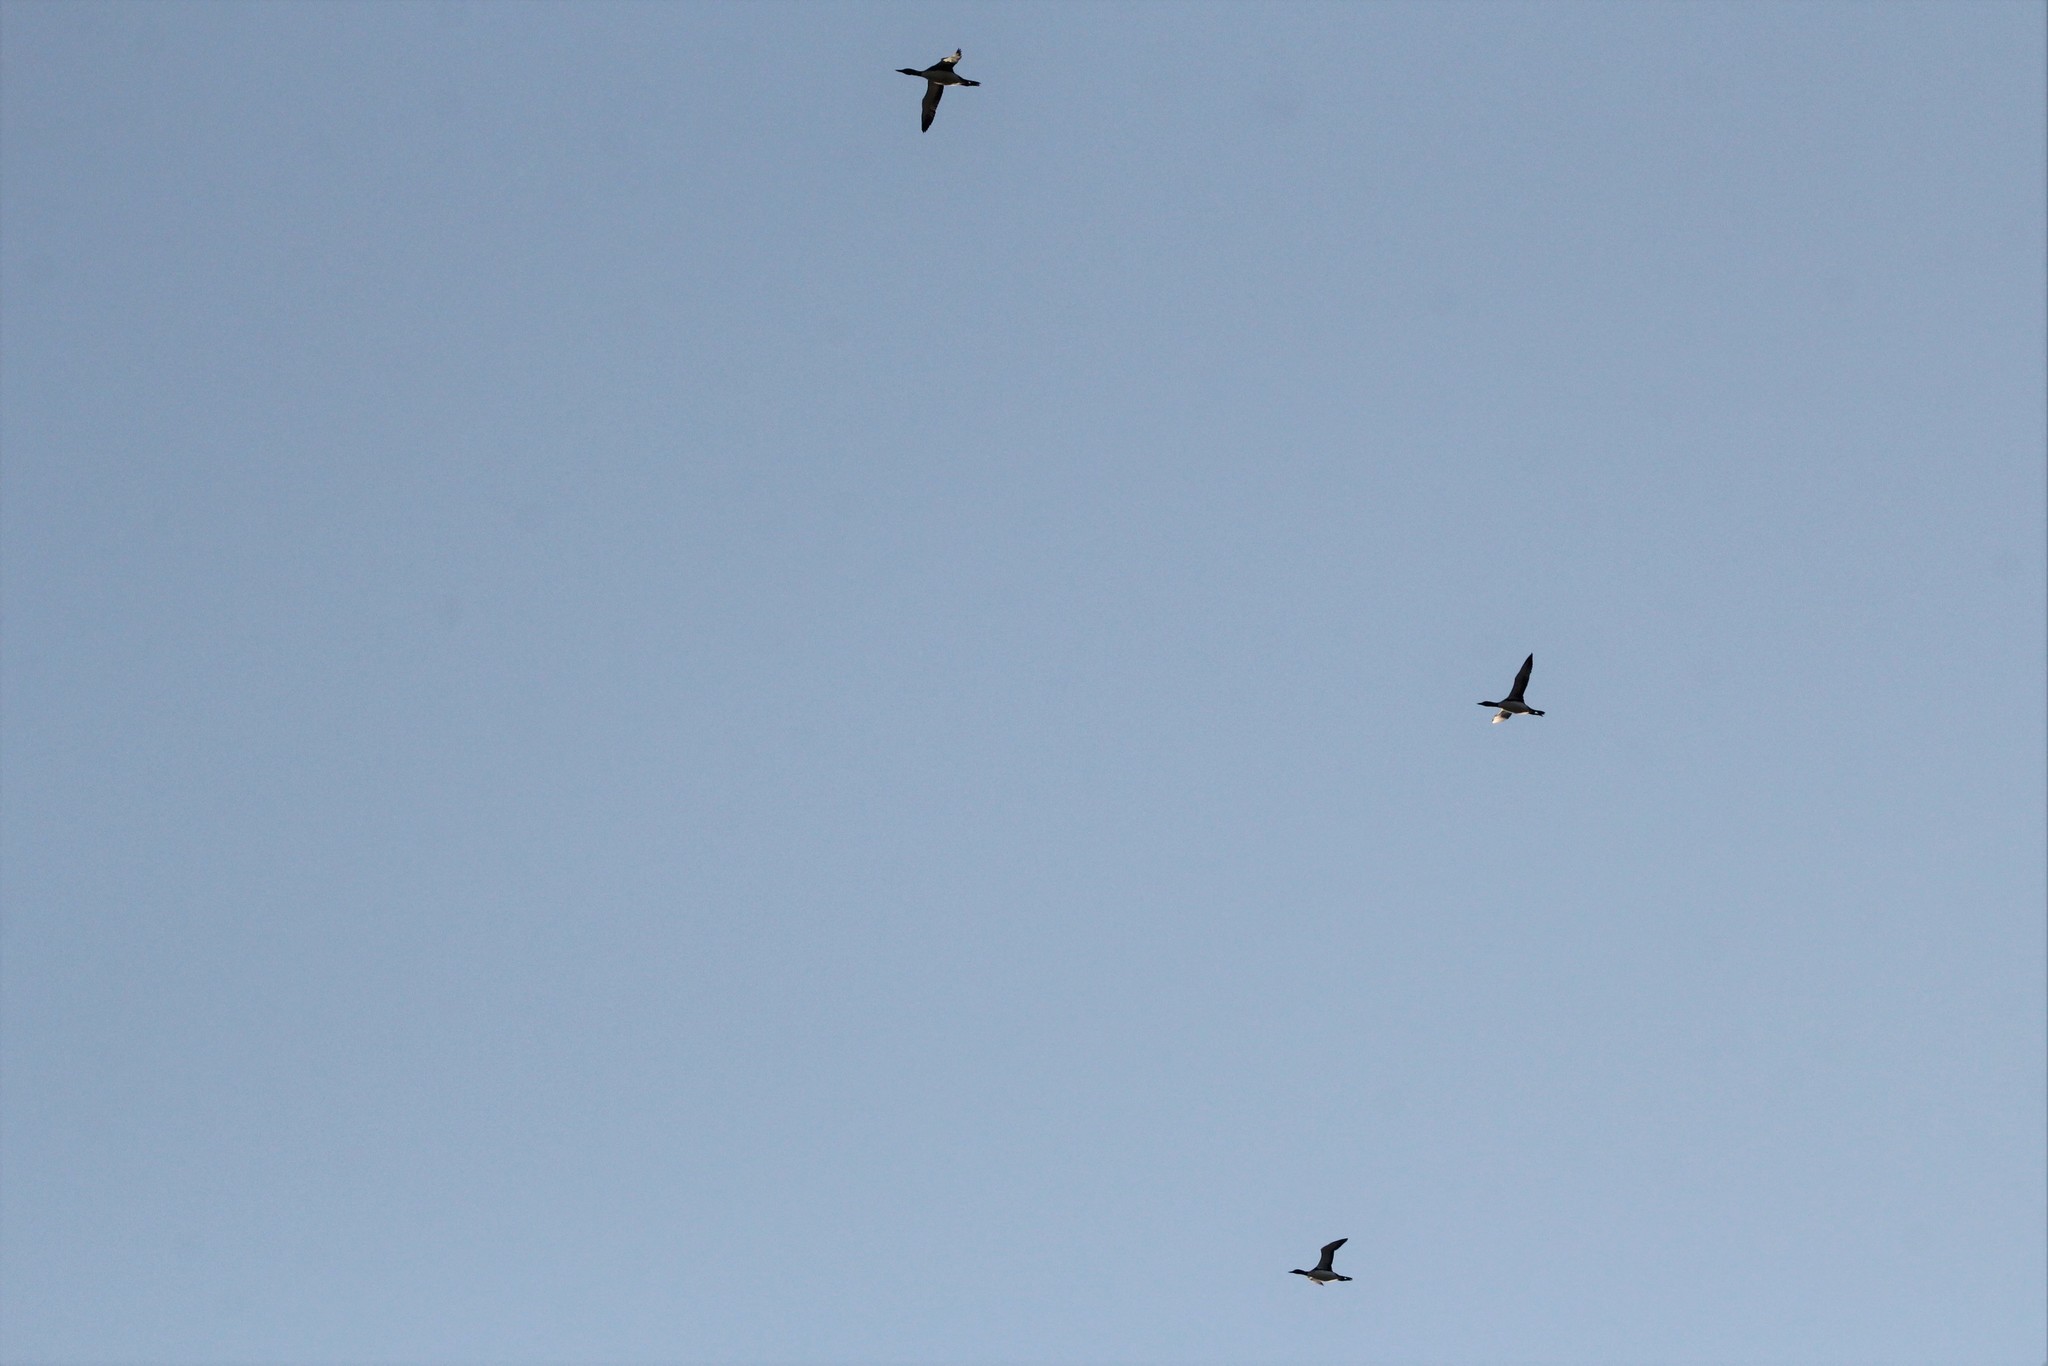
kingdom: Animalia
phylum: Chordata
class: Aves
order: Gaviiformes
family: Gaviidae
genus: Gavia
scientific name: Gavia immer
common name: Common loon
